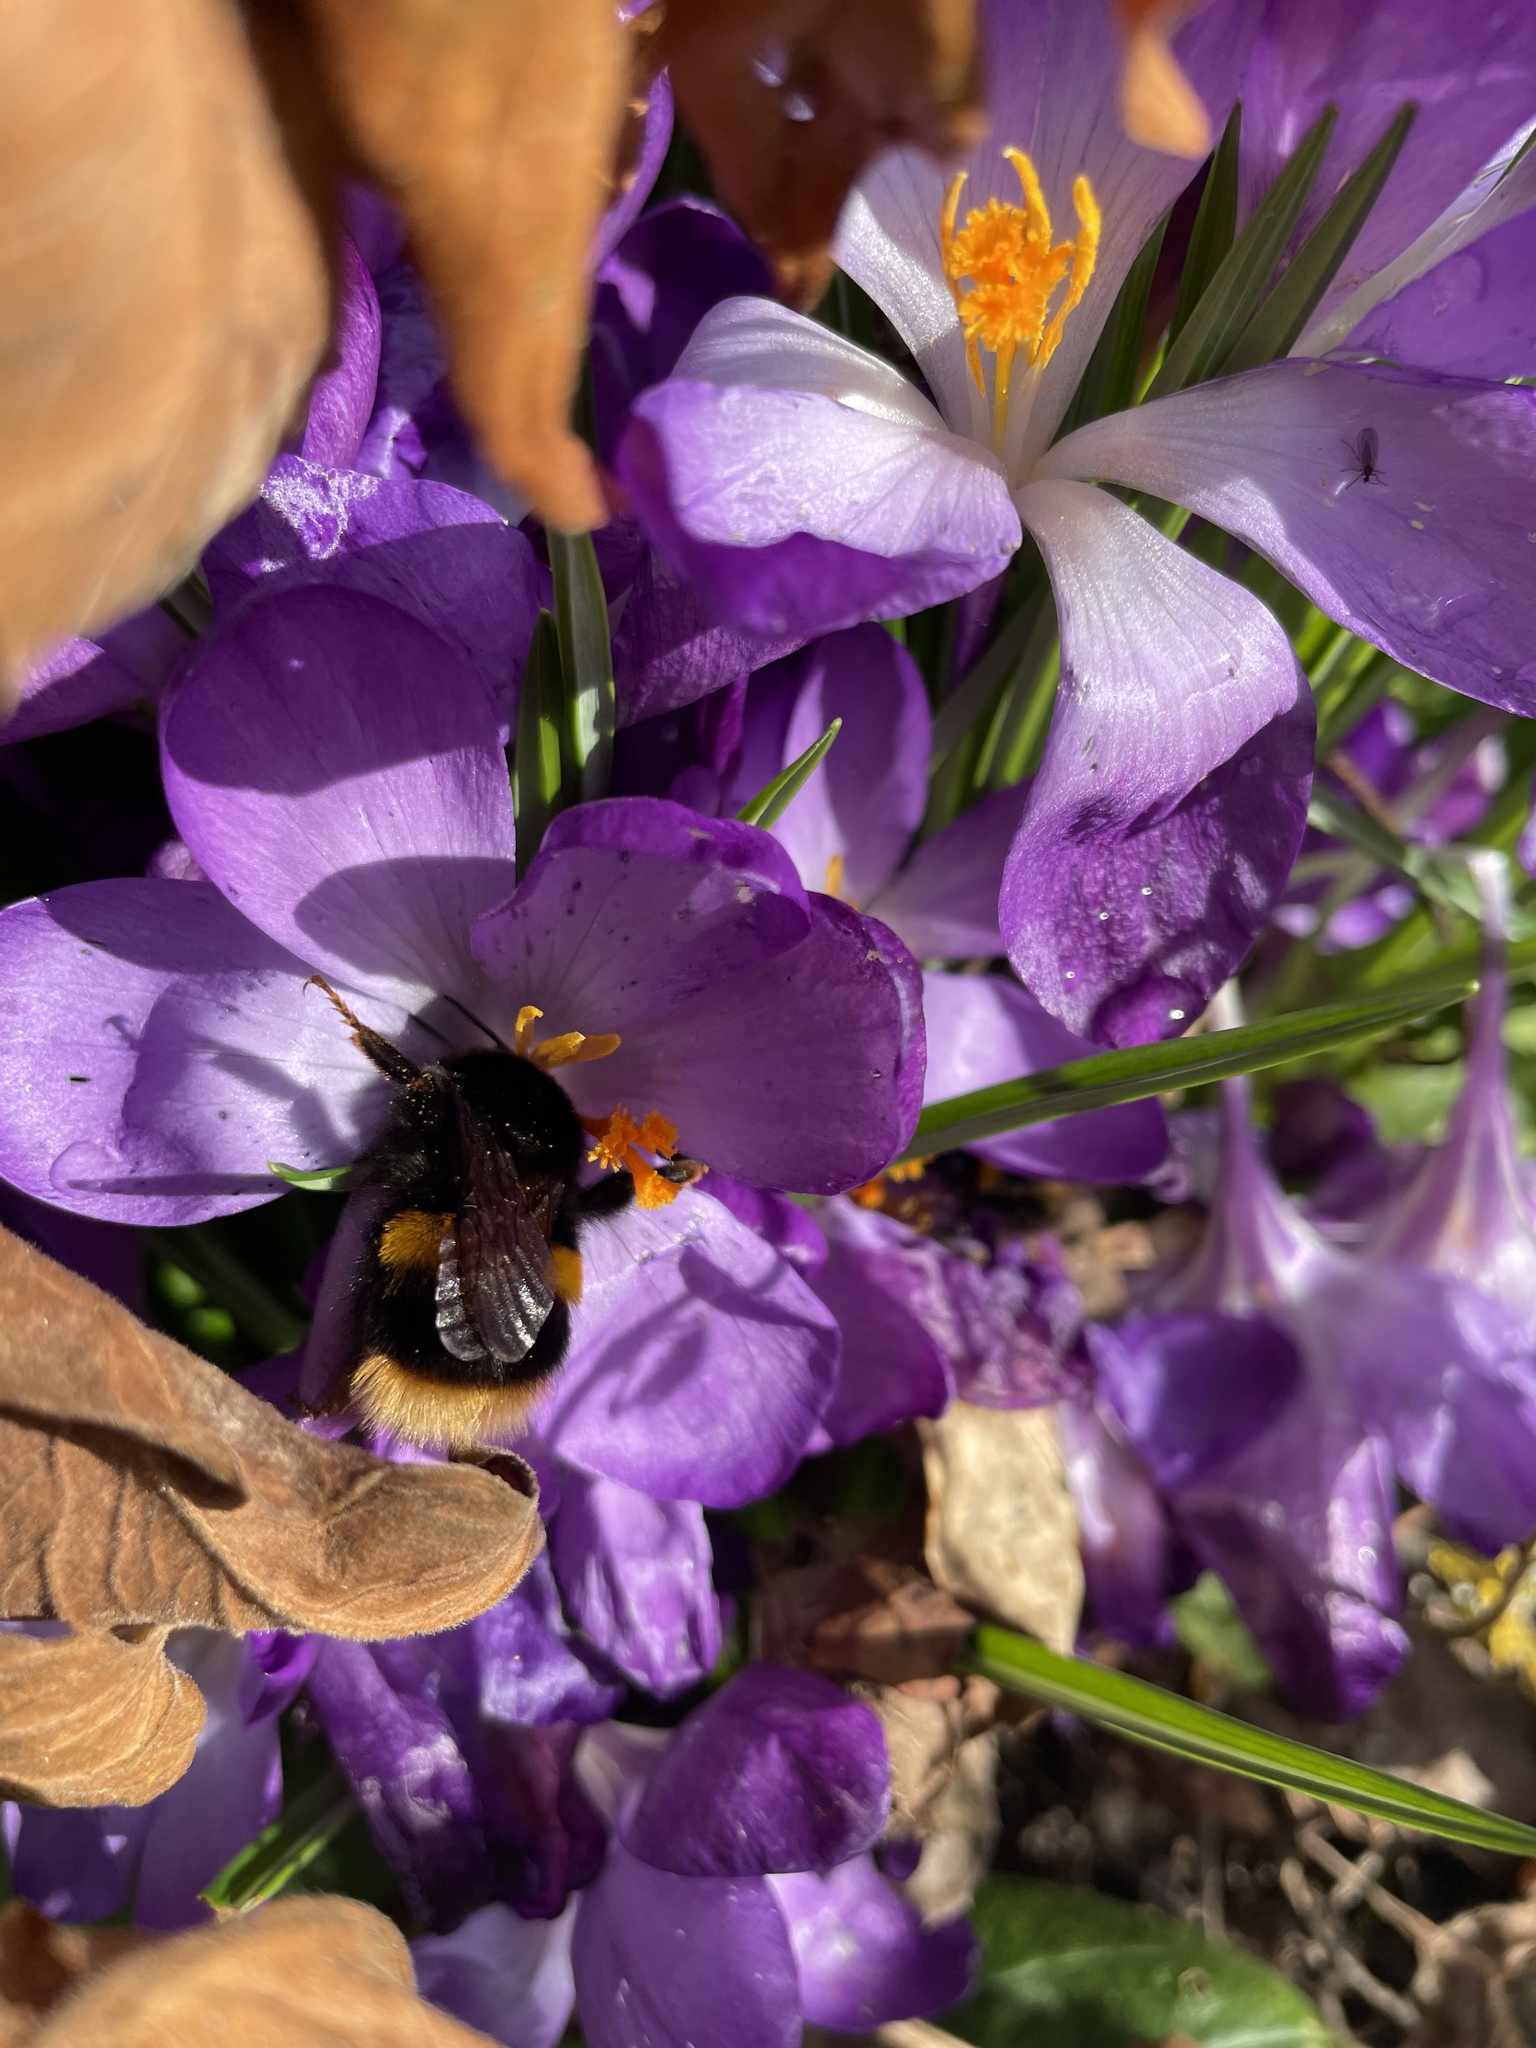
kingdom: Animalia
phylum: Arthropoda
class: Insecta
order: Hymenoptera
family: Apidae
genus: Bombus
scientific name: Bombus terrestris
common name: Buff-tailed bumblebee
